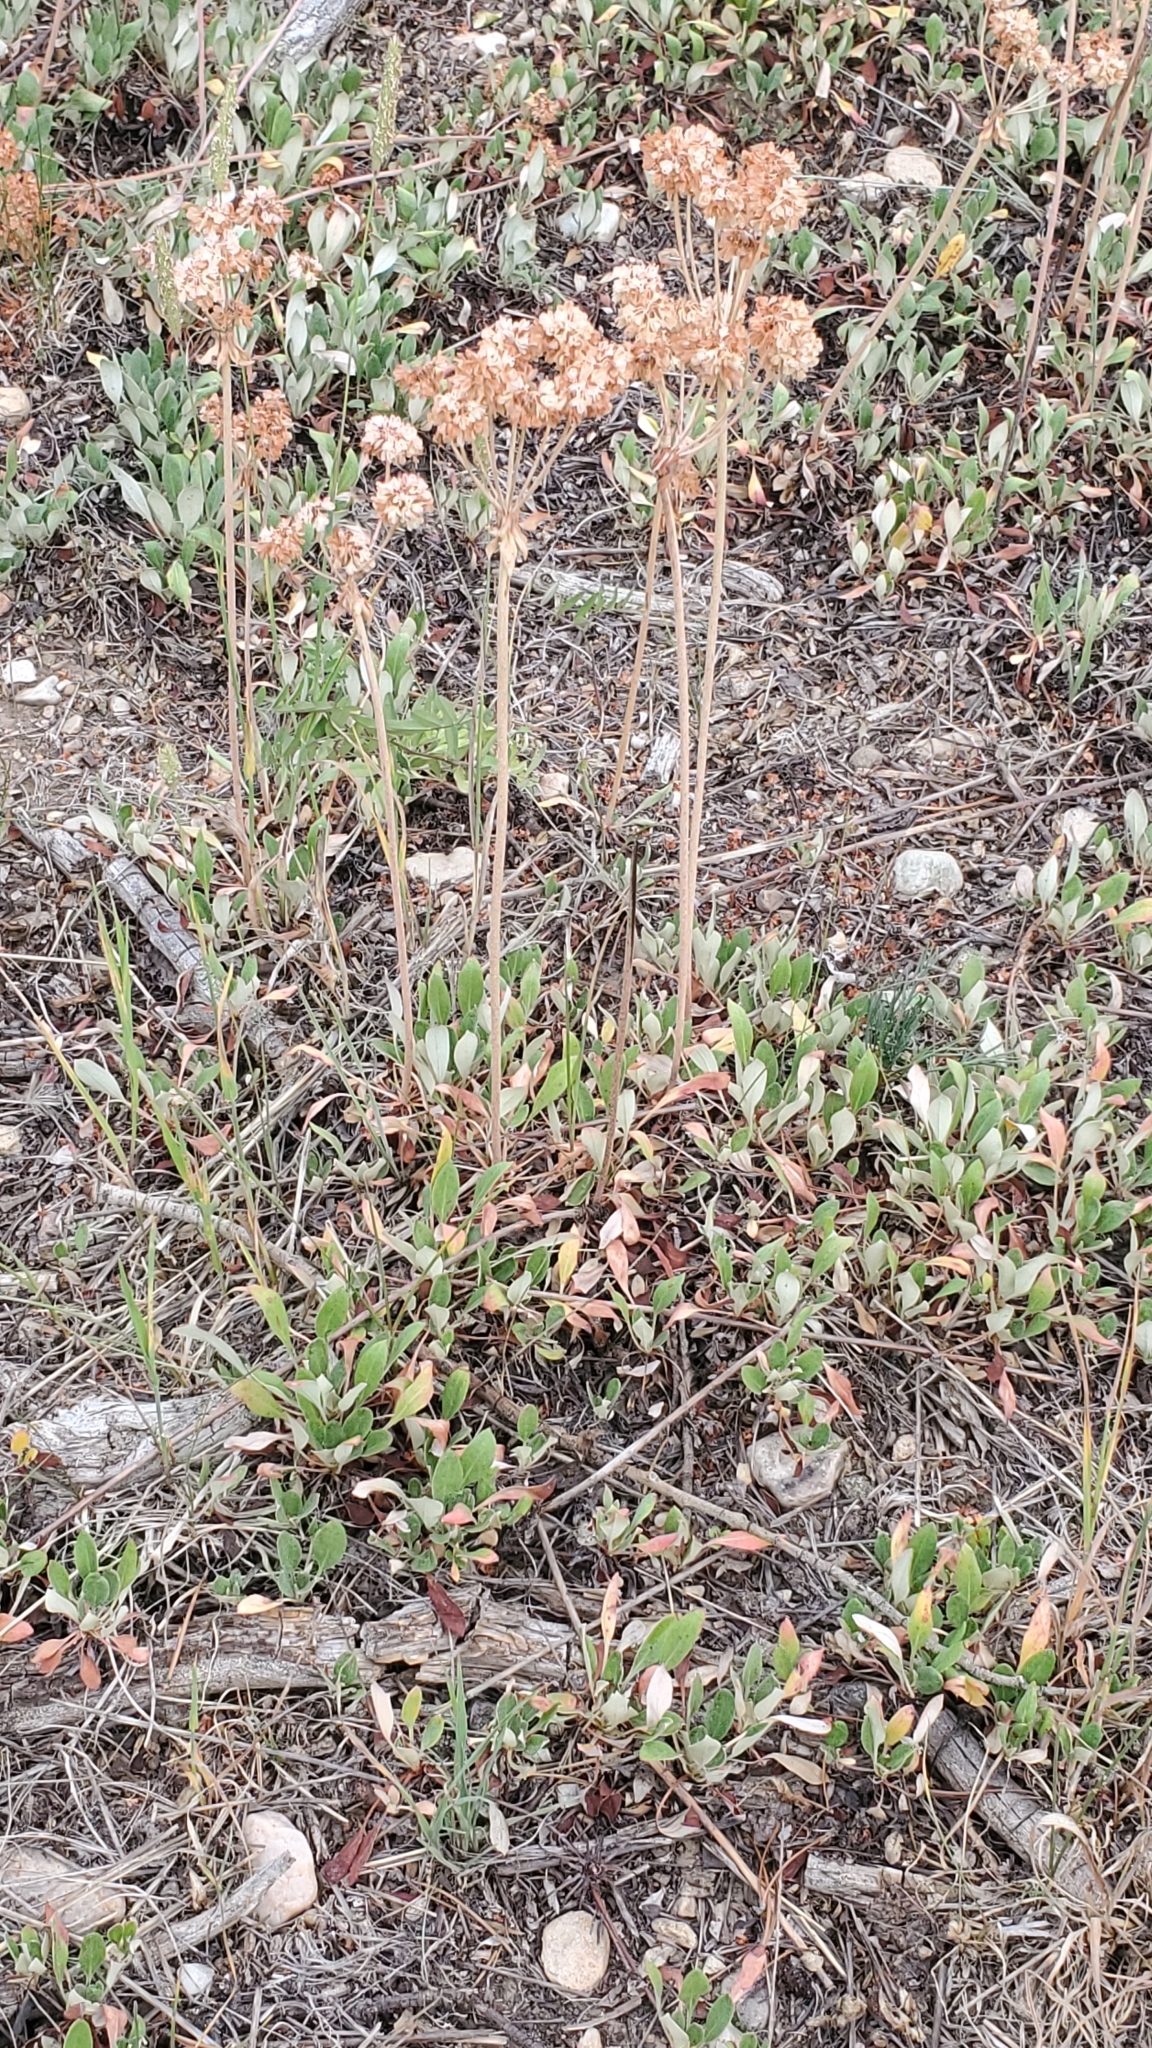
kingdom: Plantae
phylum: Tracheophyta
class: Magnoliopsida
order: Caryophyllales
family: Polygonaceae
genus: Eriogonum
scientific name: Eriogonum umbellatum
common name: Sulfur-buckwheat
